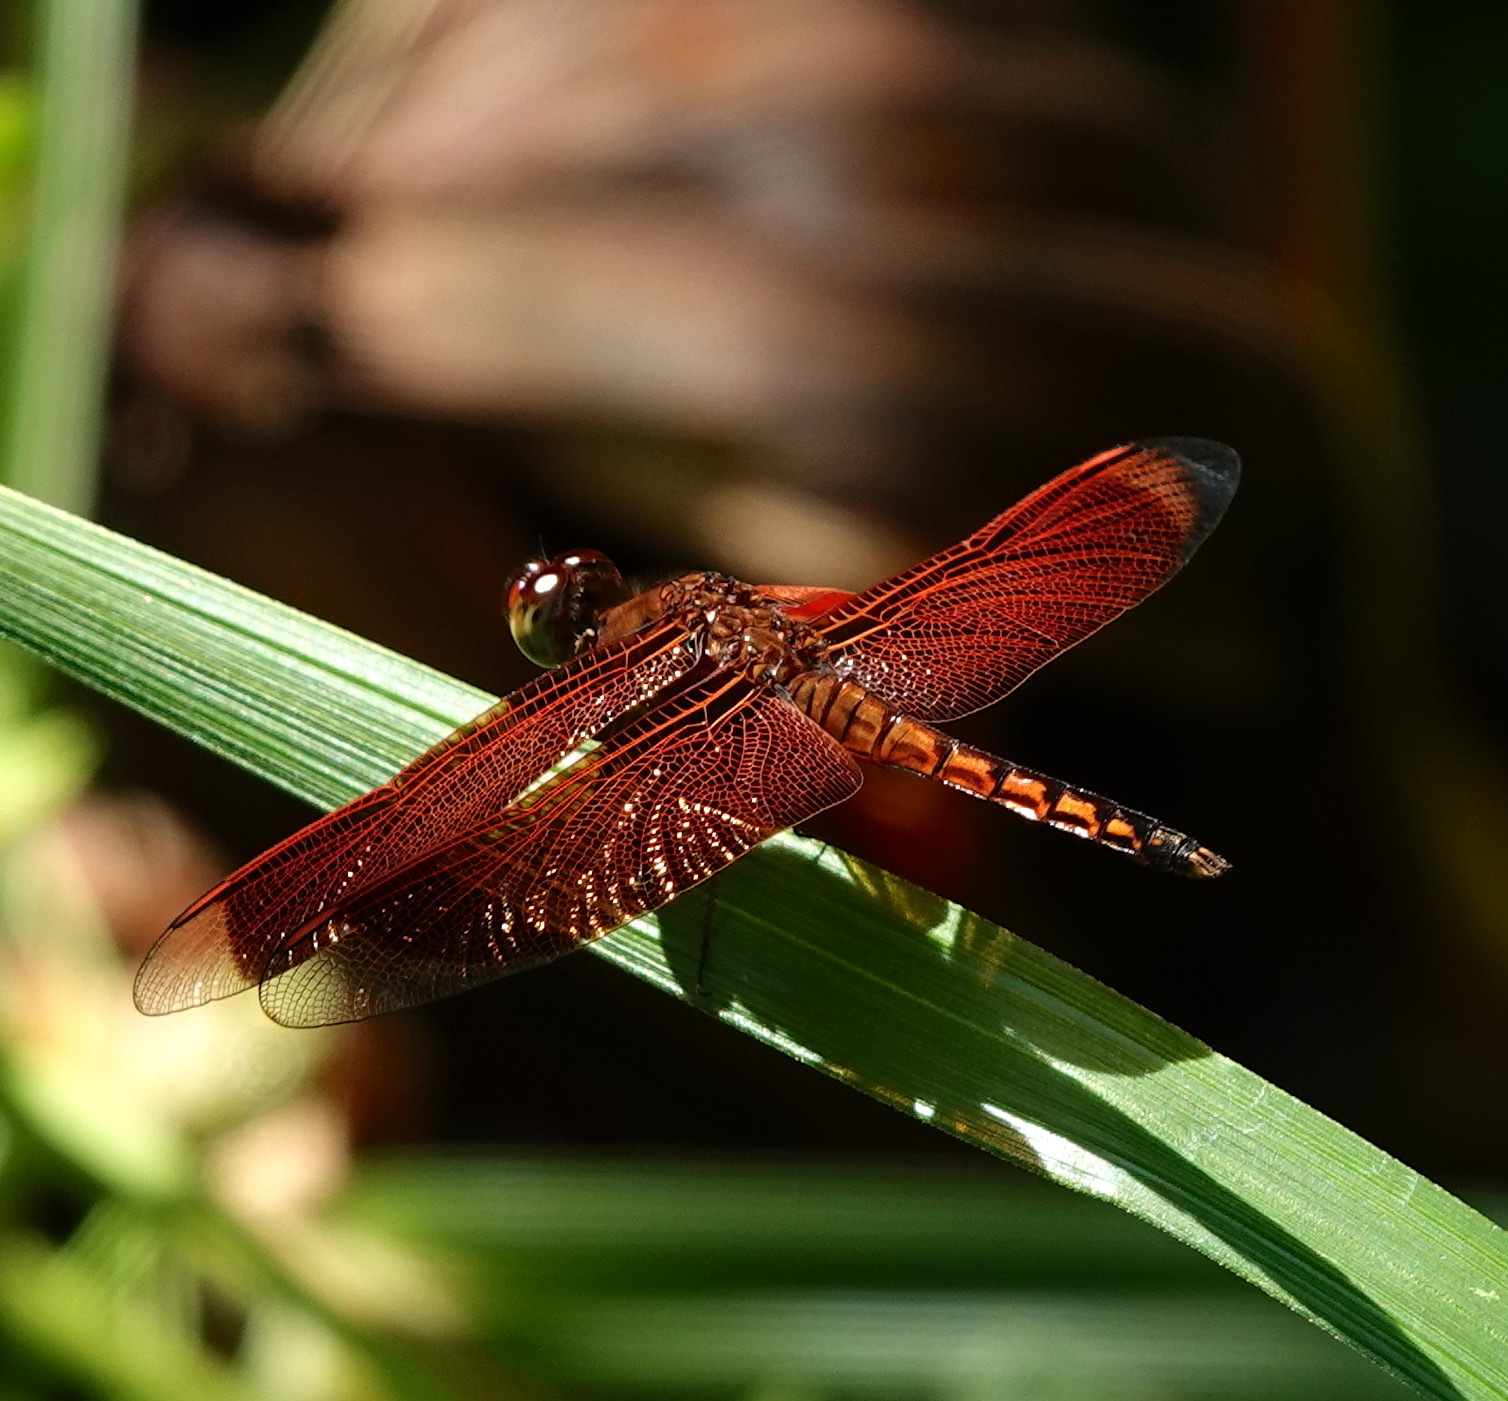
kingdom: Animalia
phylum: Arthropoda
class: Insecta
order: Odonata
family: Libellulidae
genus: Neurothemis
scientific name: Neurothemis ramburii
